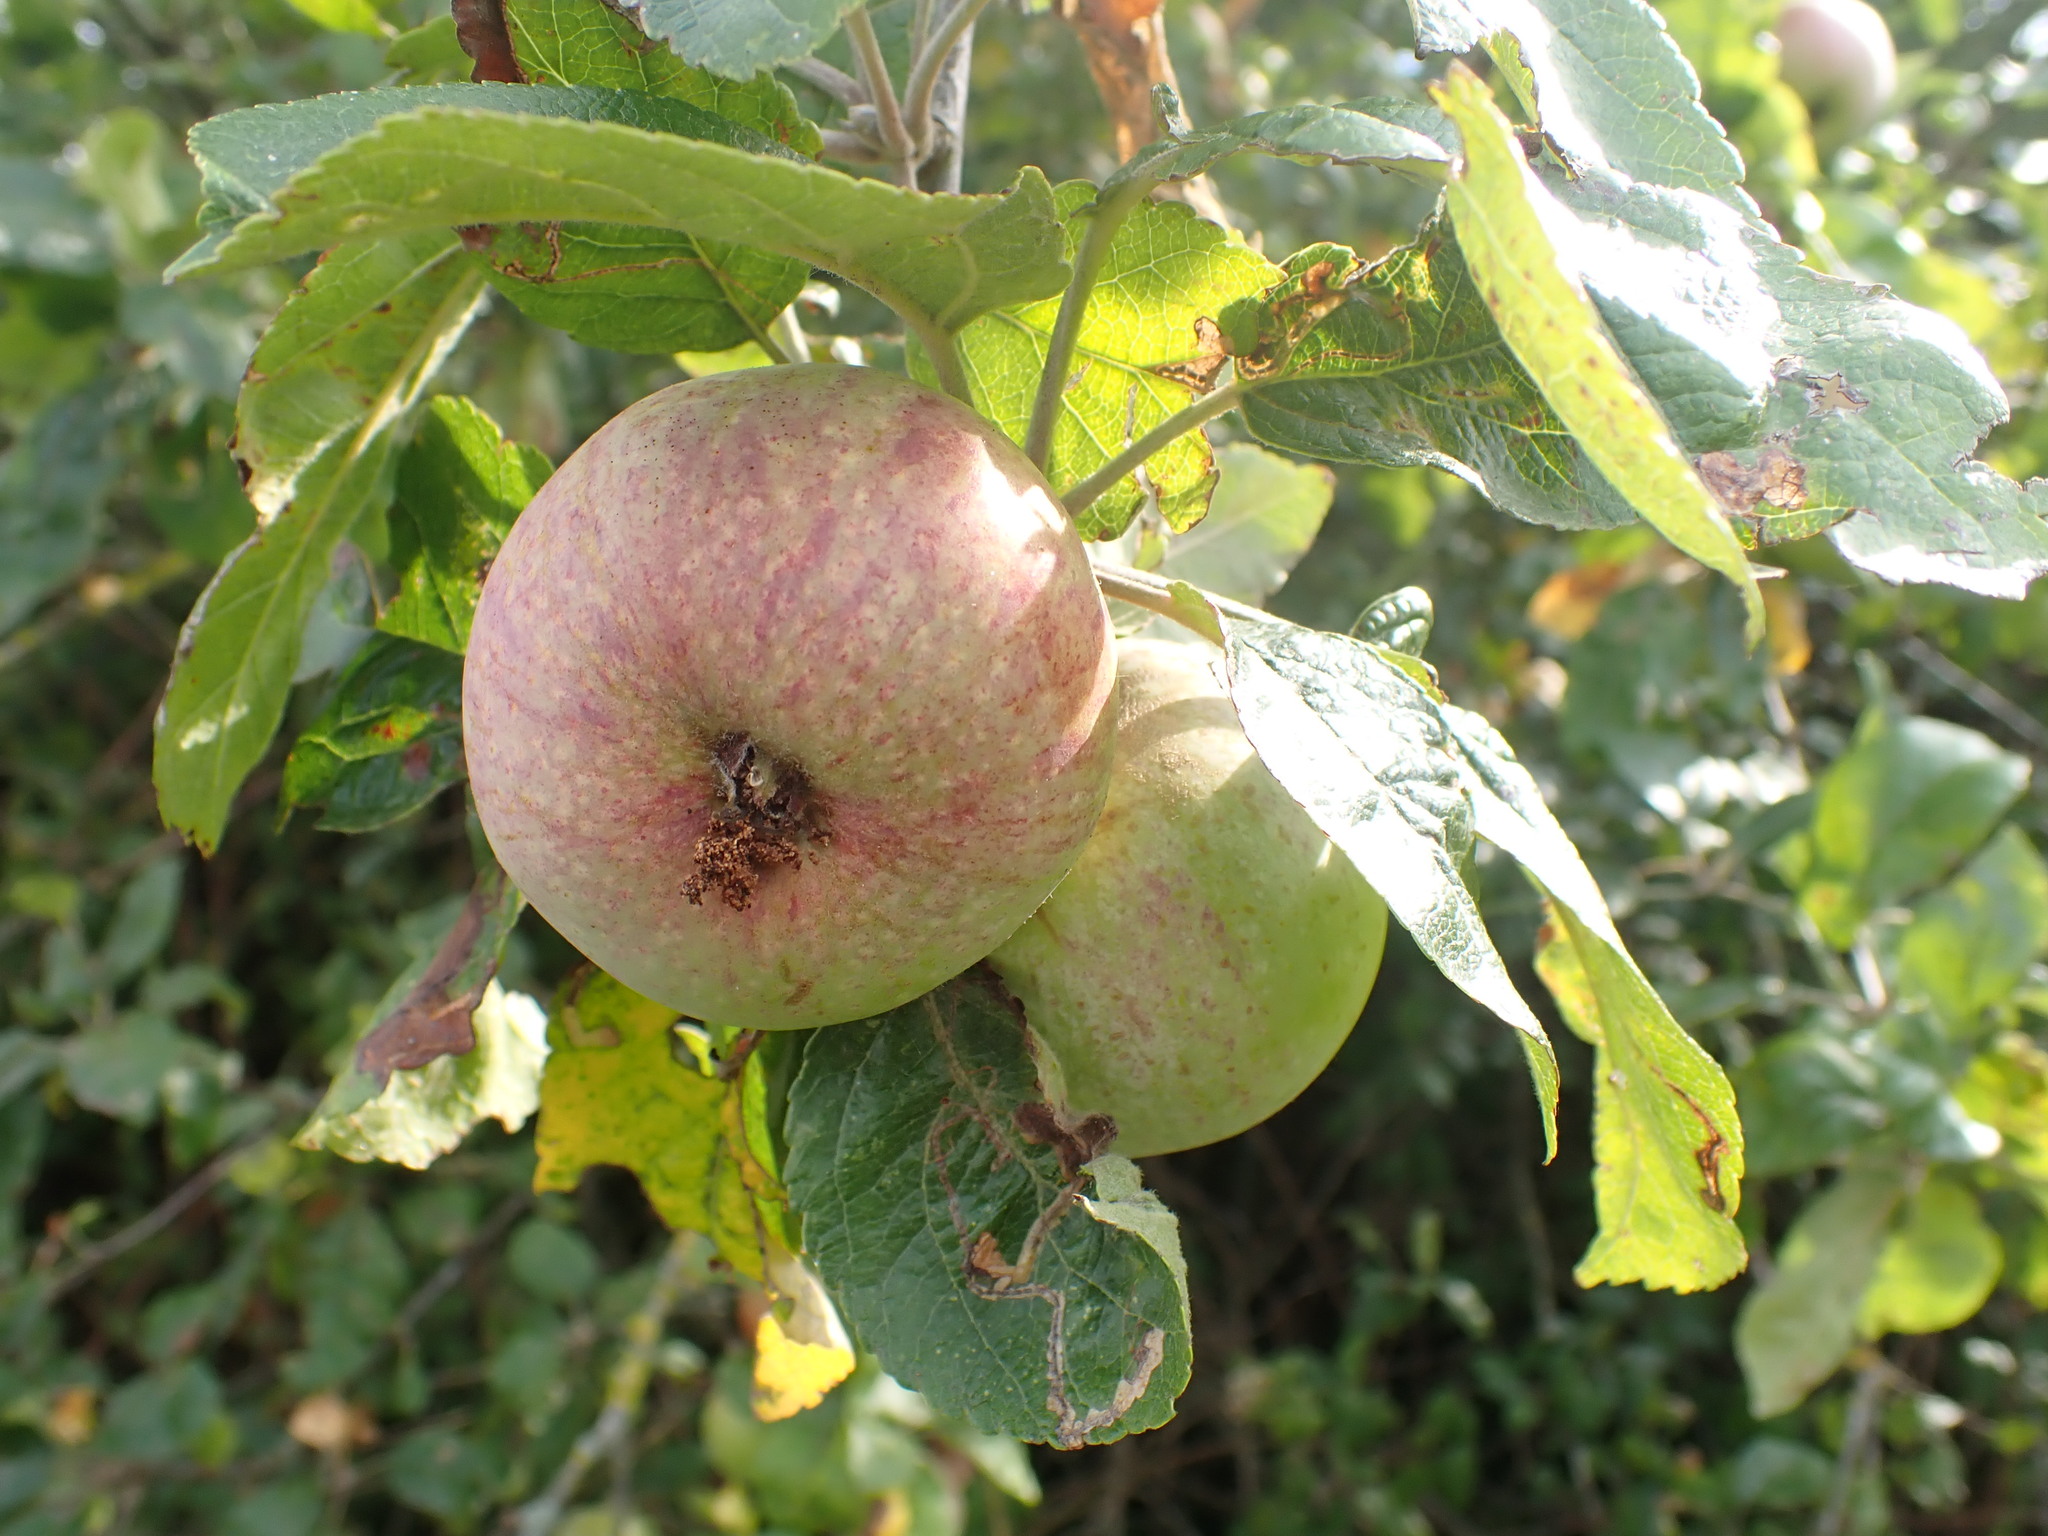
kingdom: Plantae
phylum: Tracheophyta
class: Magnoliopsida
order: Rosales
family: Rosaceae
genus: Malus
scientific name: Malus domestica
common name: Apple
